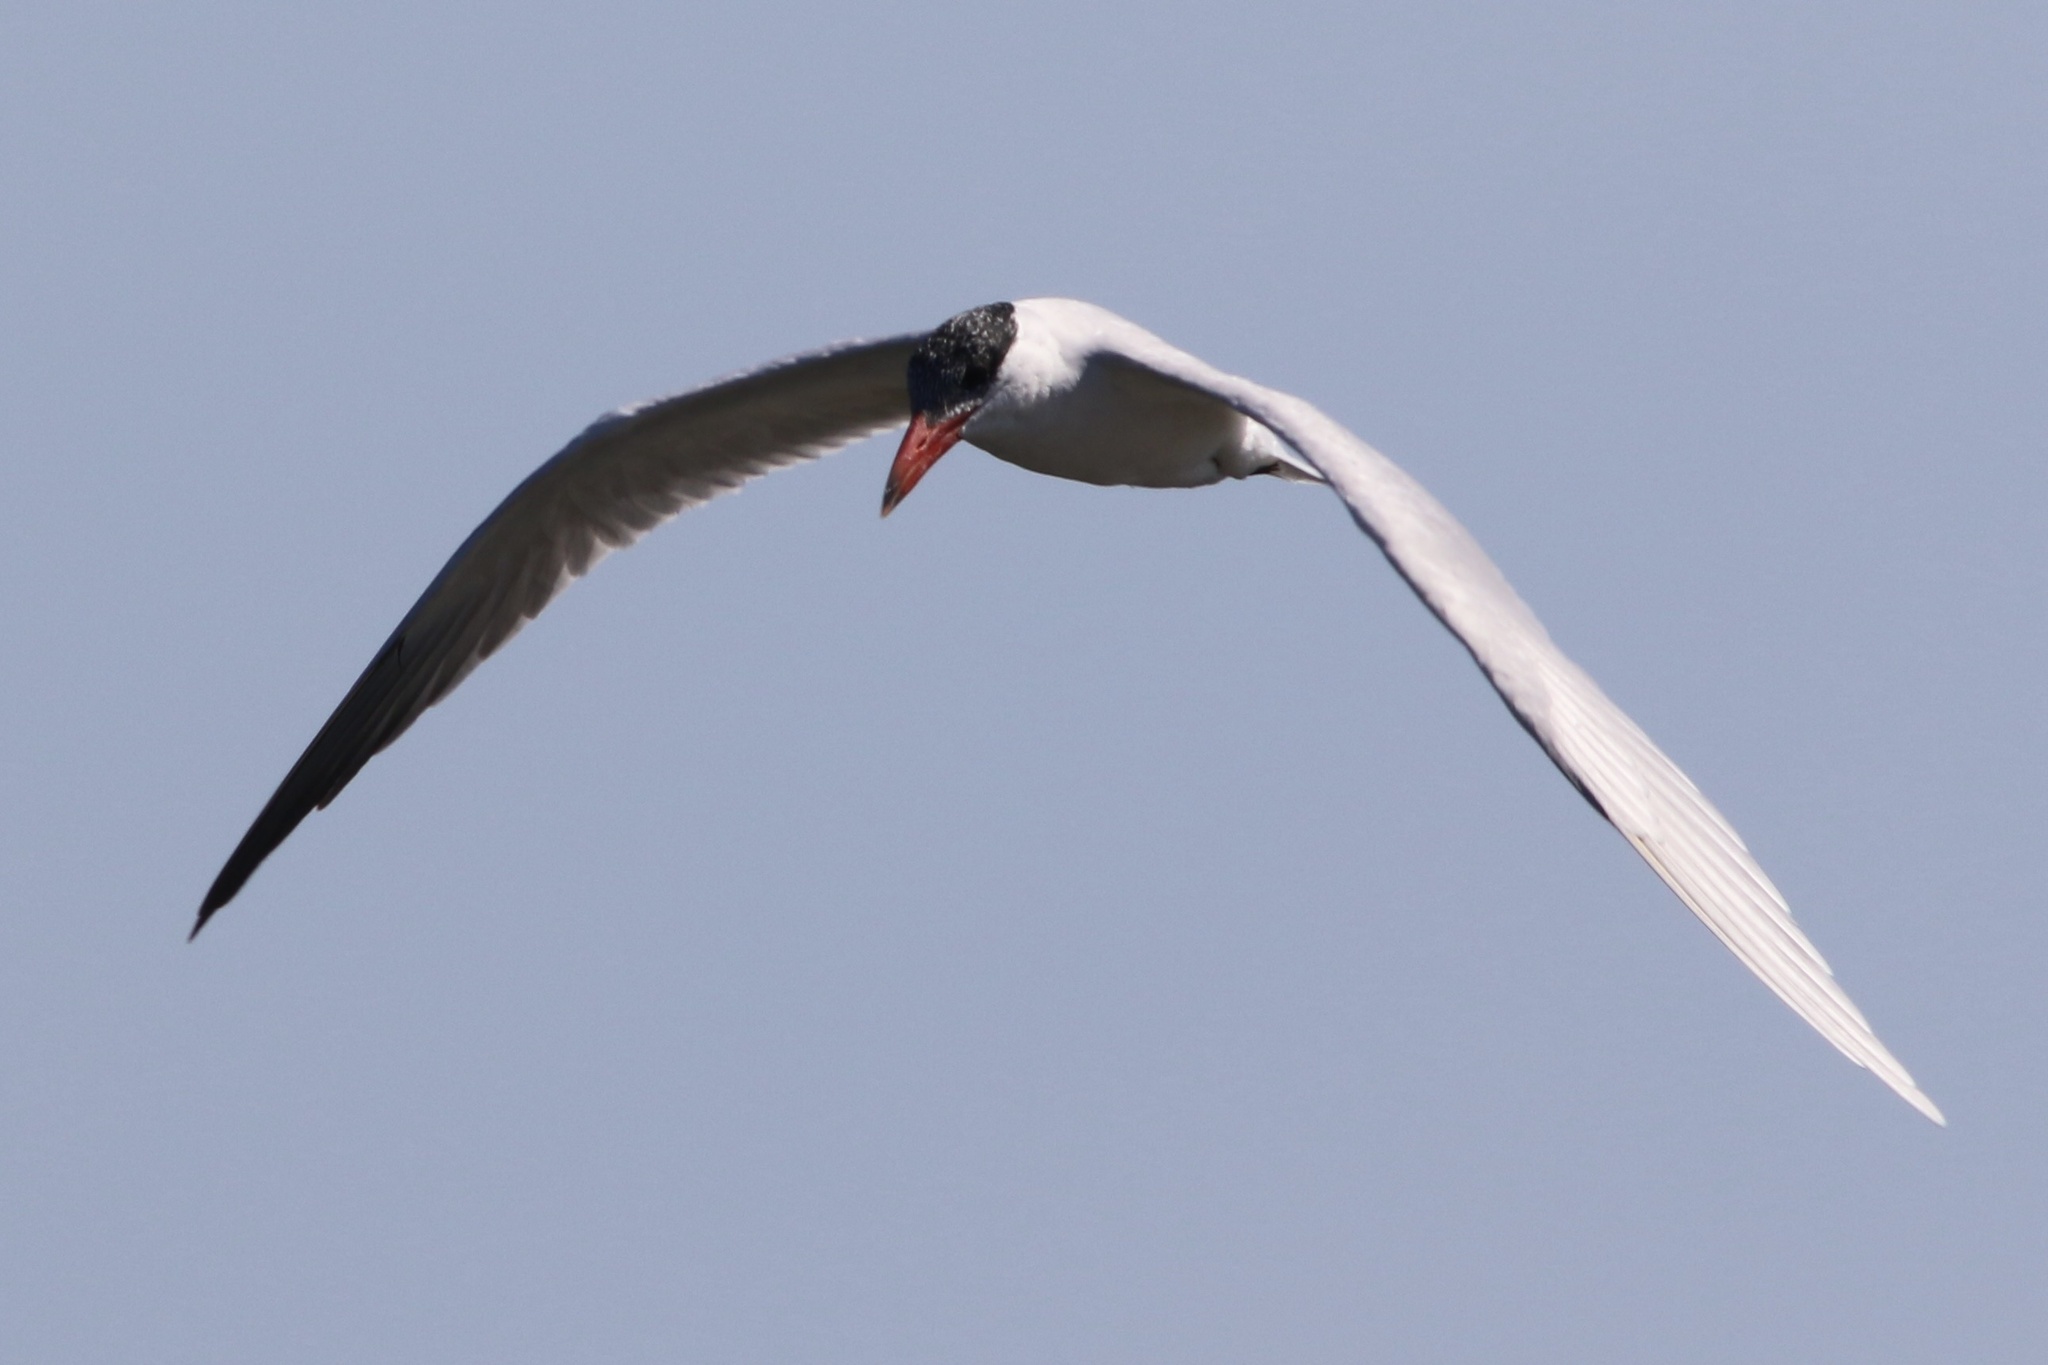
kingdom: Animalia
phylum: Chordata
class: Aves
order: Charadriiformes
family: Laridae
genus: Hydroprogne
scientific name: Hydroprogne caspia
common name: Caspian tern
